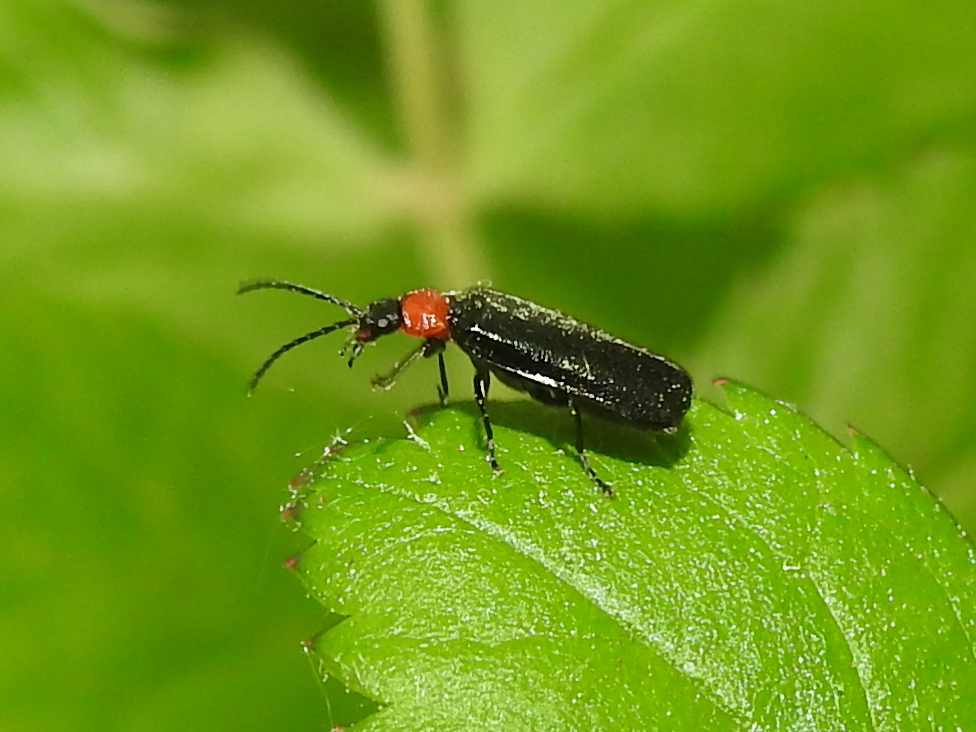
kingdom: Animalia
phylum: Arthropoda
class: Insecta
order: Coleoptera
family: Oedemeridae
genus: Ischnomera
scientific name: Ischnomera
